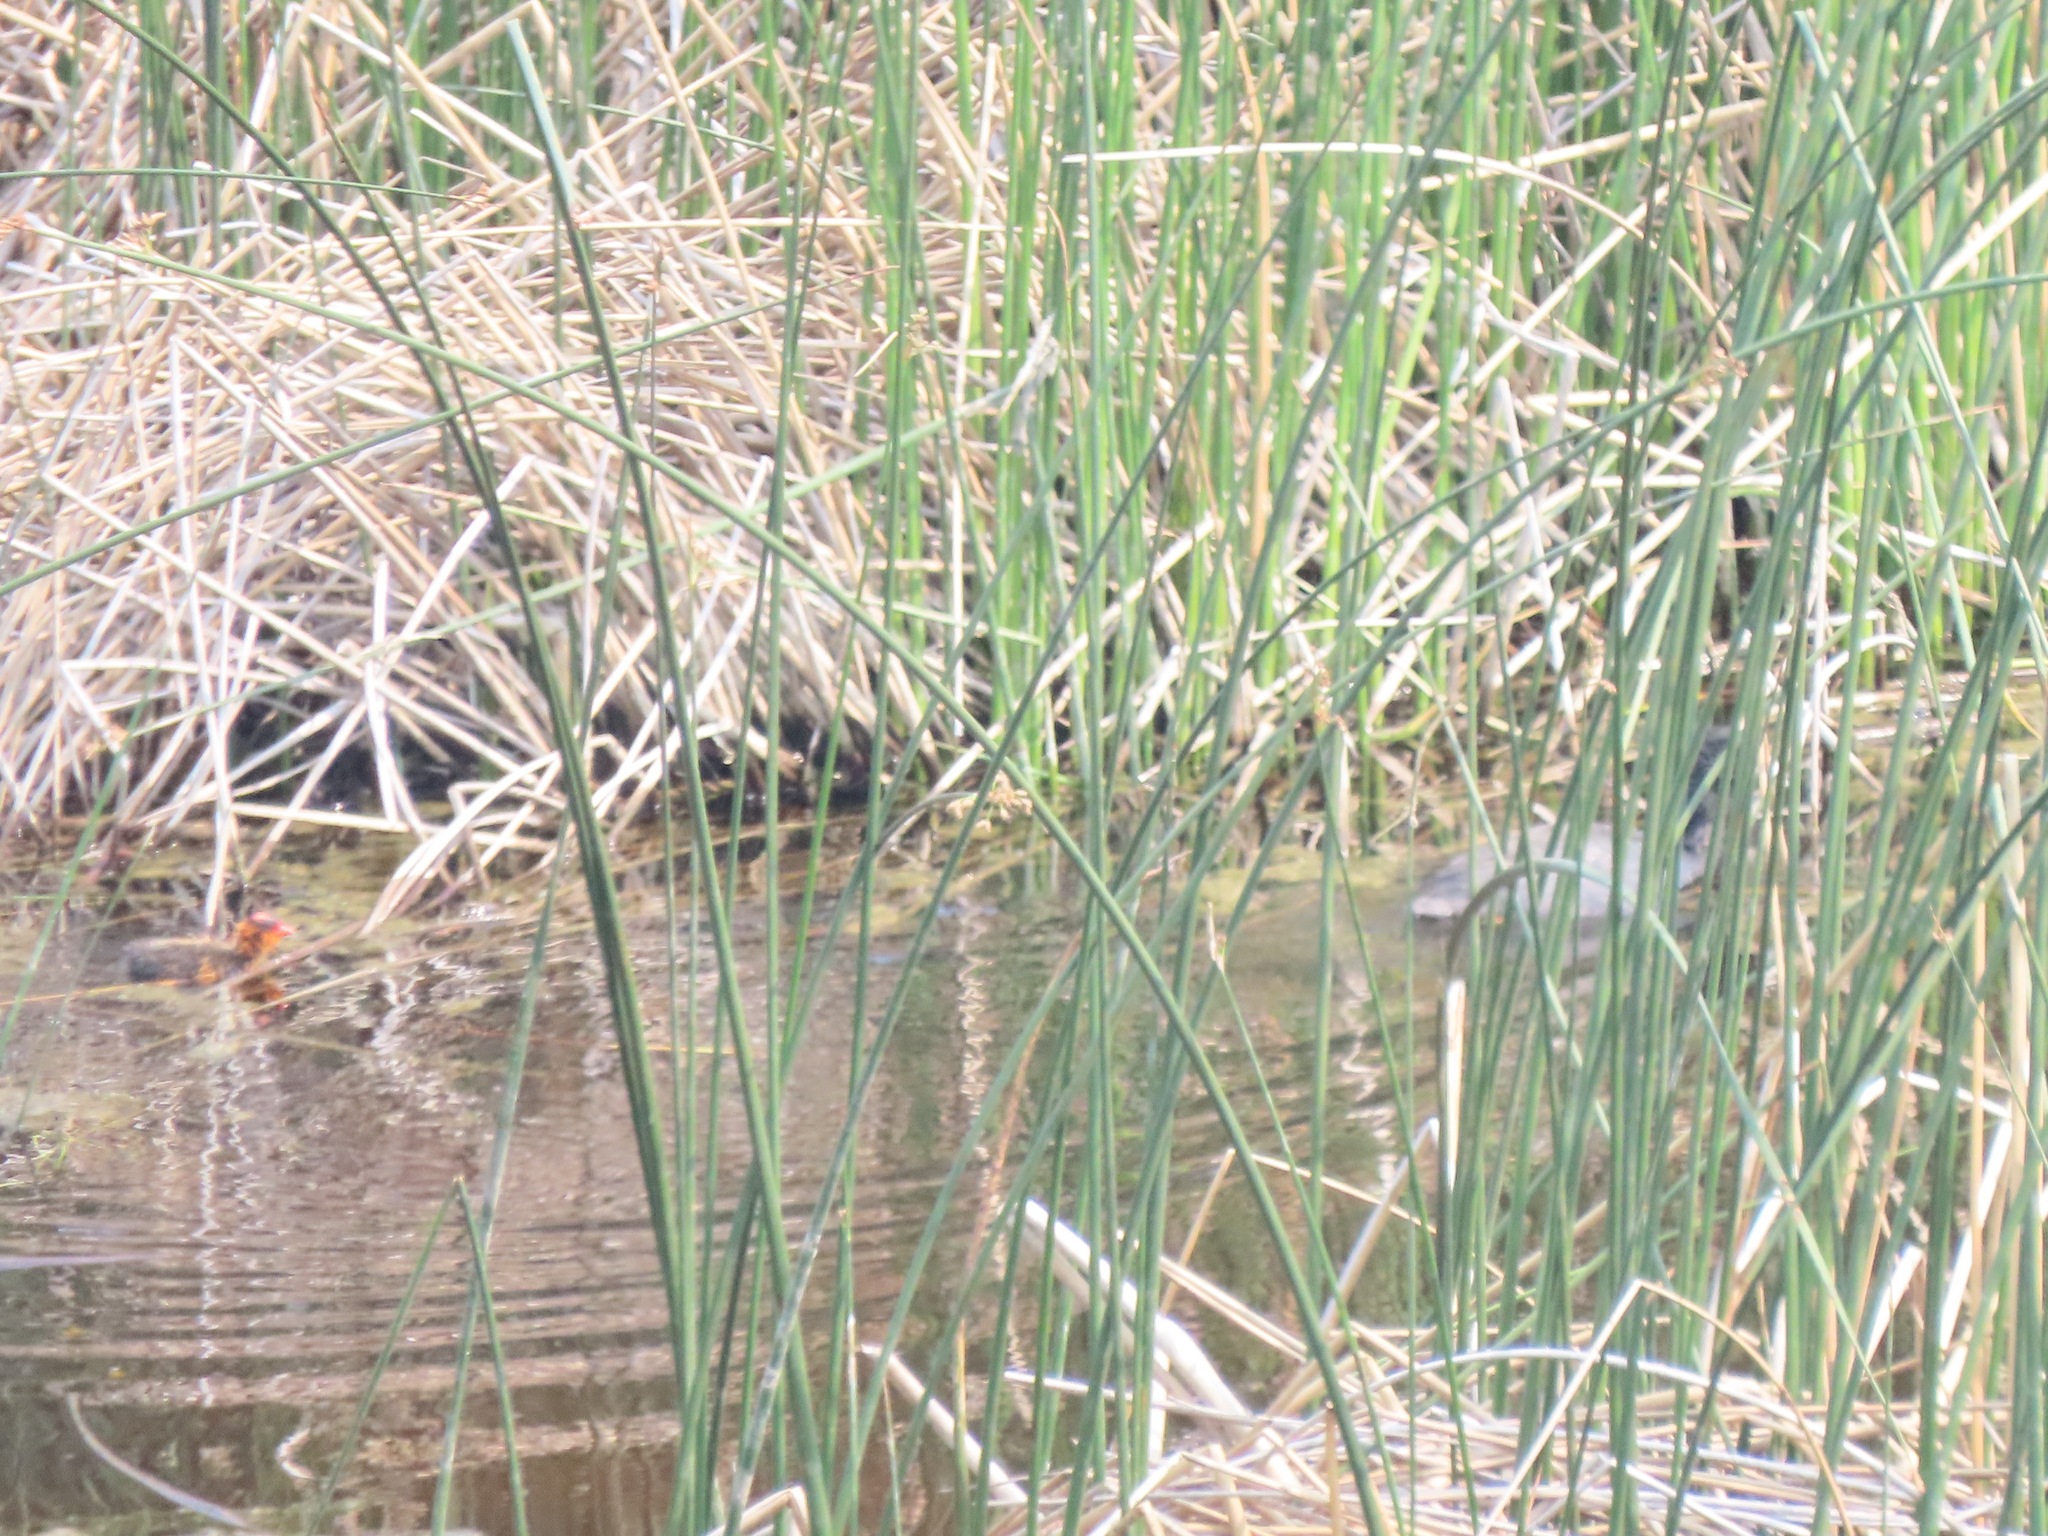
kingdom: Animalia
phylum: Chordata
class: Aves
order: Gruiformes
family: Rallidae
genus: Fulica
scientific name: Fulica americana
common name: American coot
